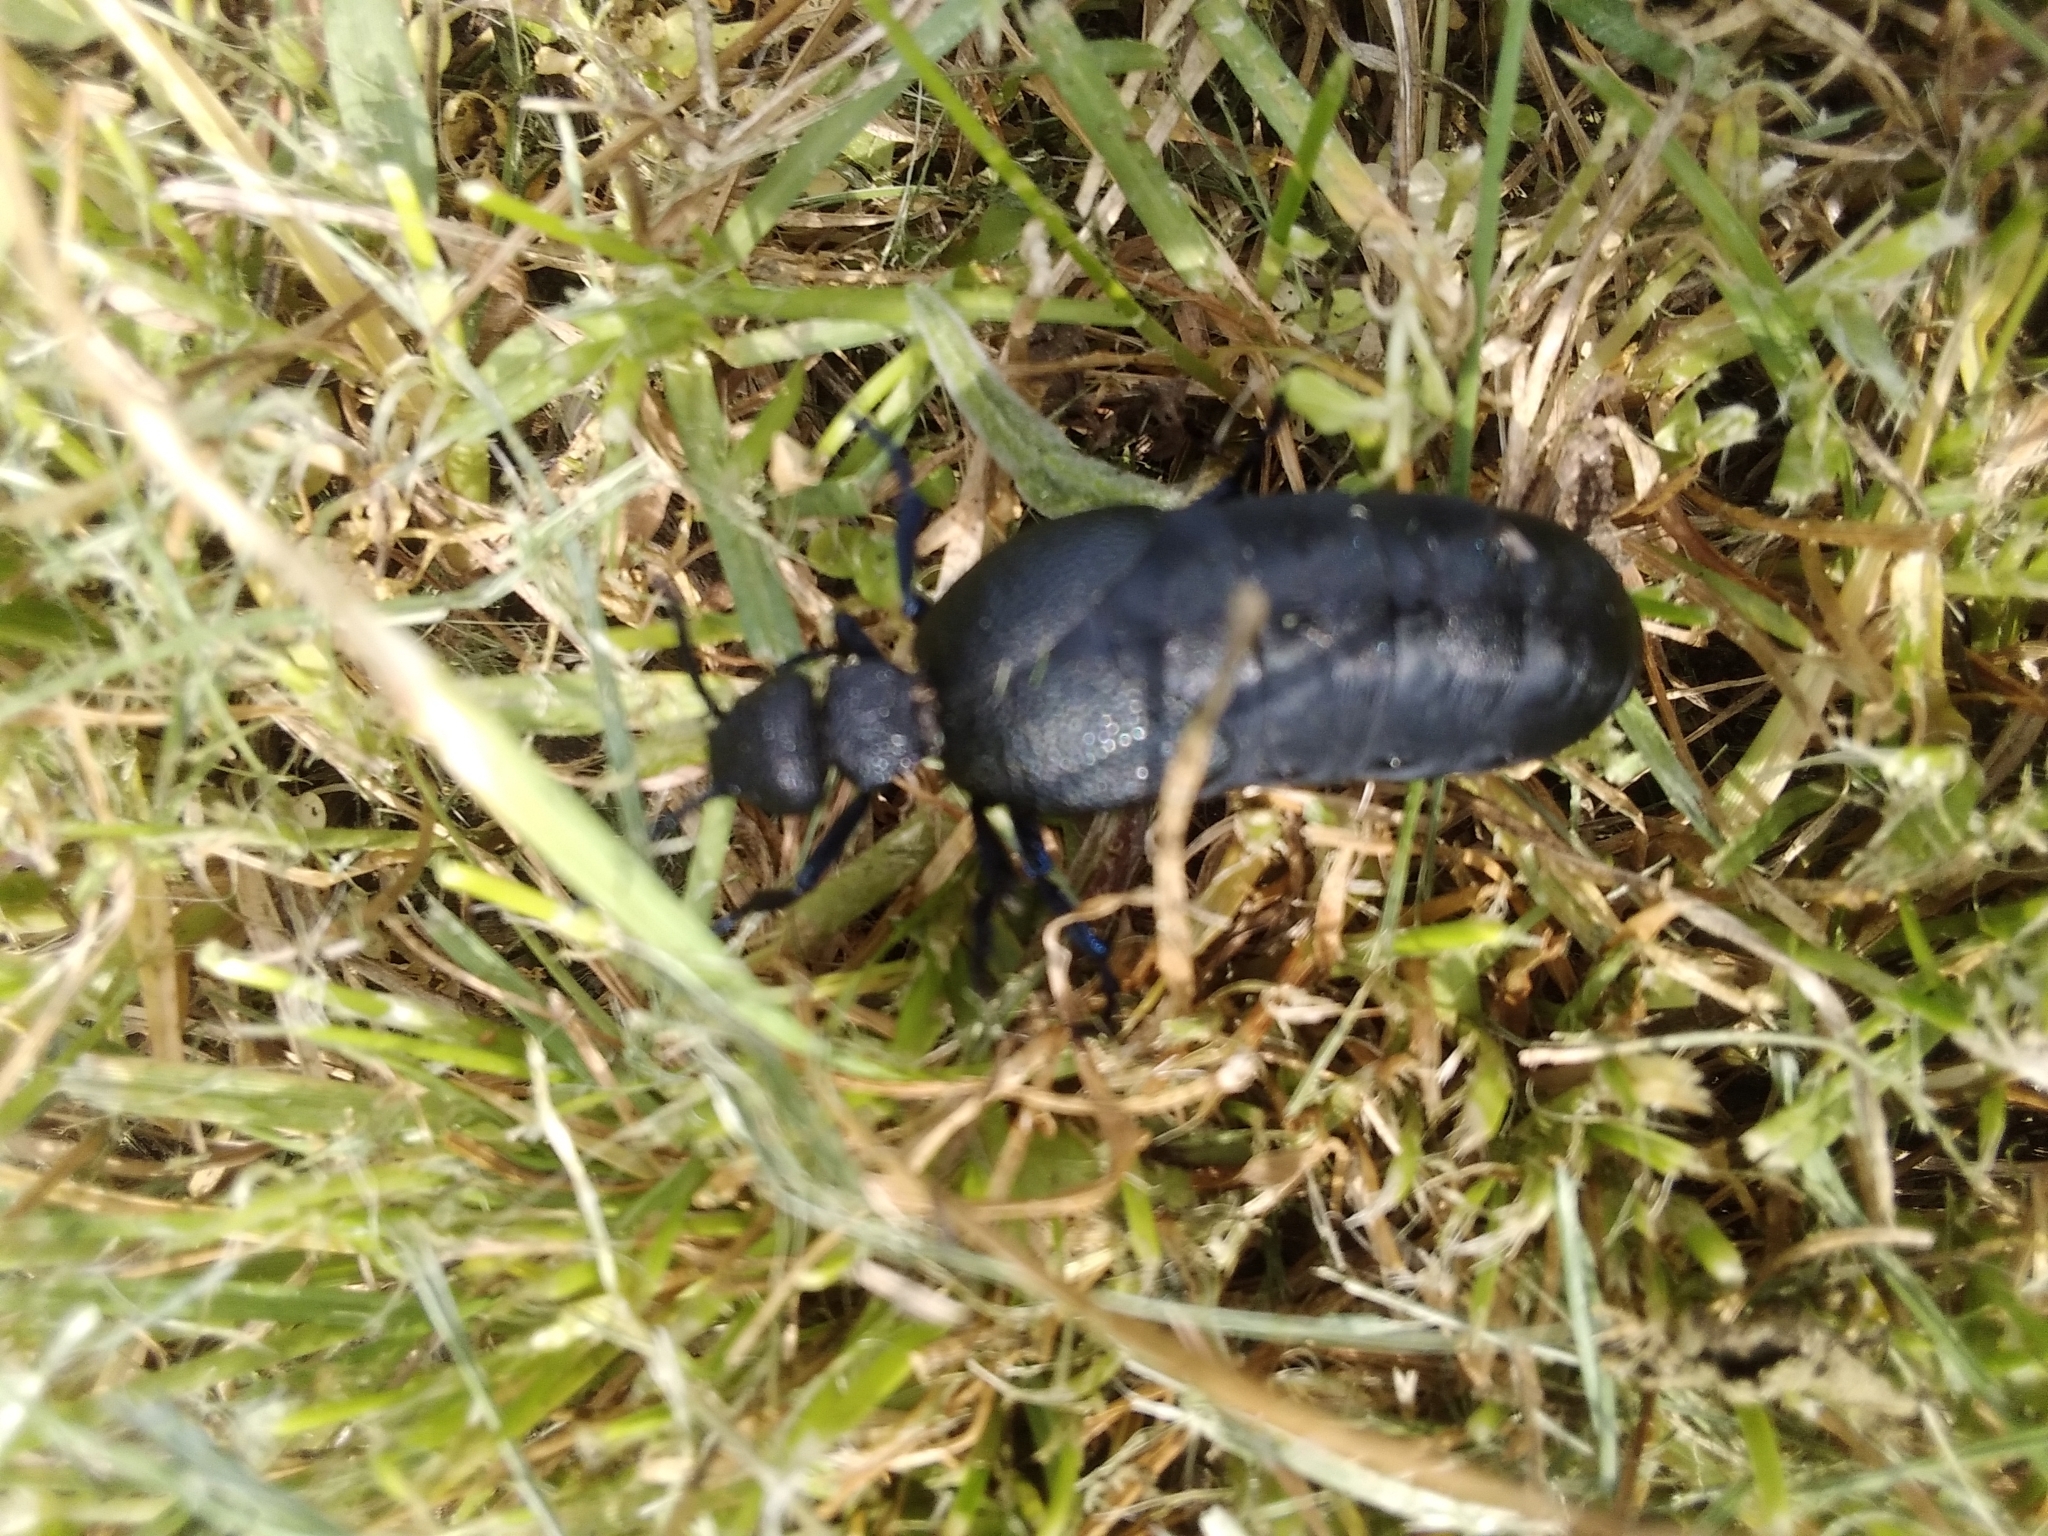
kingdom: Animalia
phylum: Arthropoda
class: Insecta
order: Coleoptera
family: Meloidae
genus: Meloe
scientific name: Meloe cicatricosus
